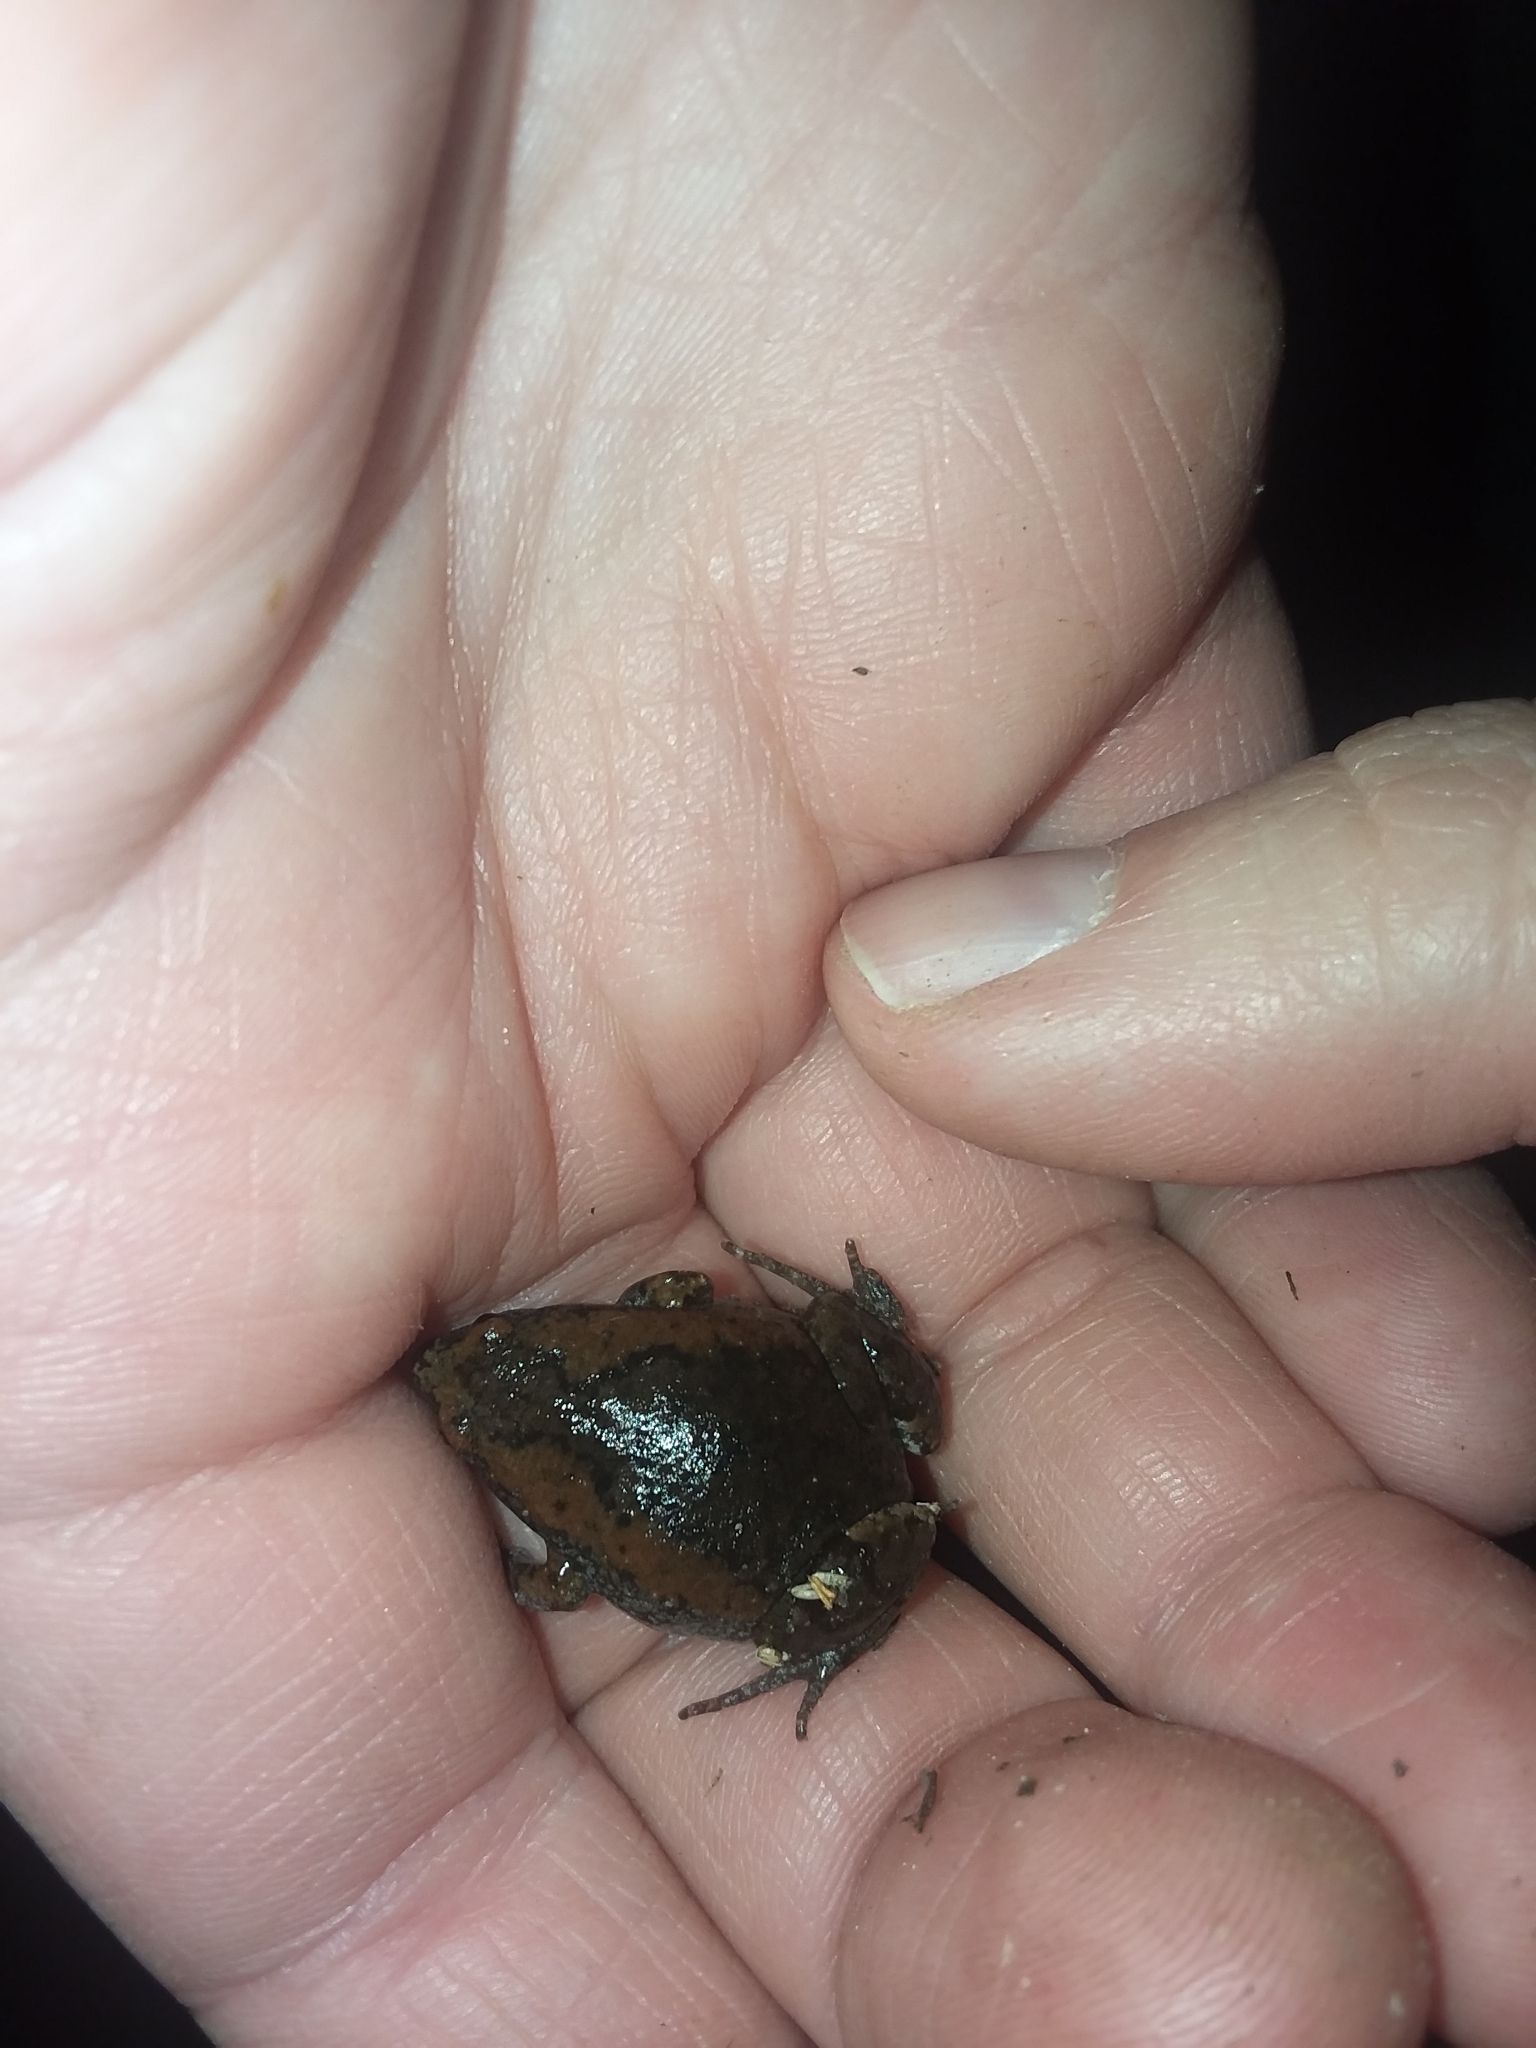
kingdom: Animalia
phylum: Chordata
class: Amphibia
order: Anura
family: Microhylidae
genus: Gastrophryne
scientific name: Gastrophryne carolinensis
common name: Eastern narrowmouth toad
